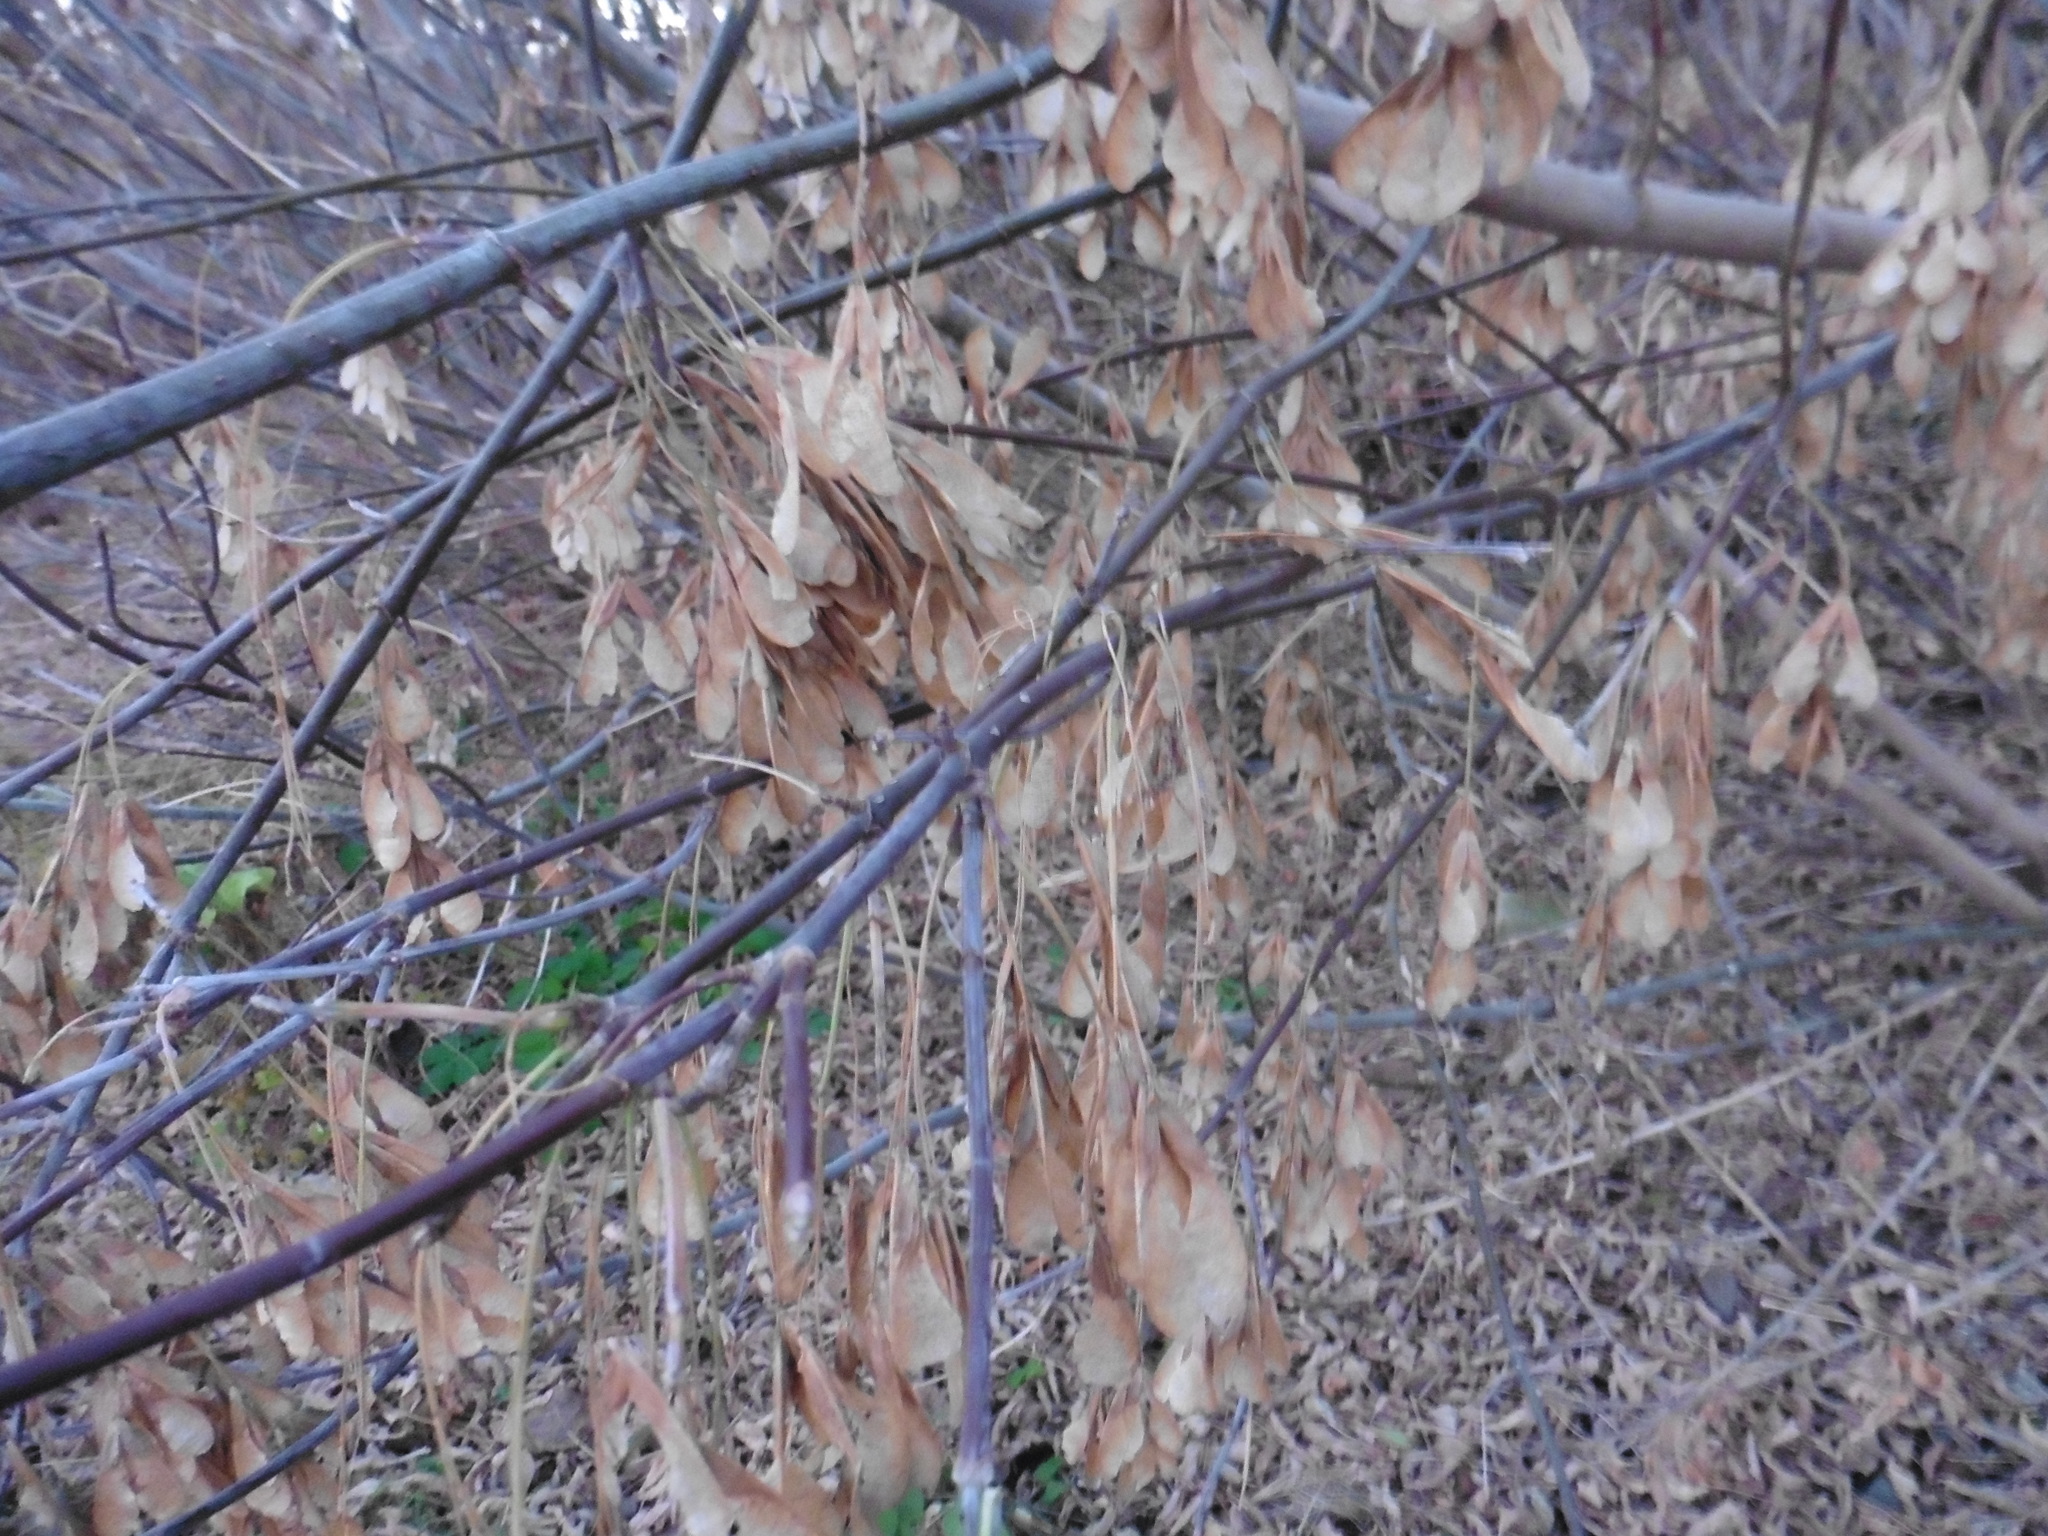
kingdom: Plantae
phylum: Tracheophyta
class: Magnoliopsida
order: Sapindales
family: Sapindaceae
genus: Acer
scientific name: Acer negundo
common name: Ashleaf maple
